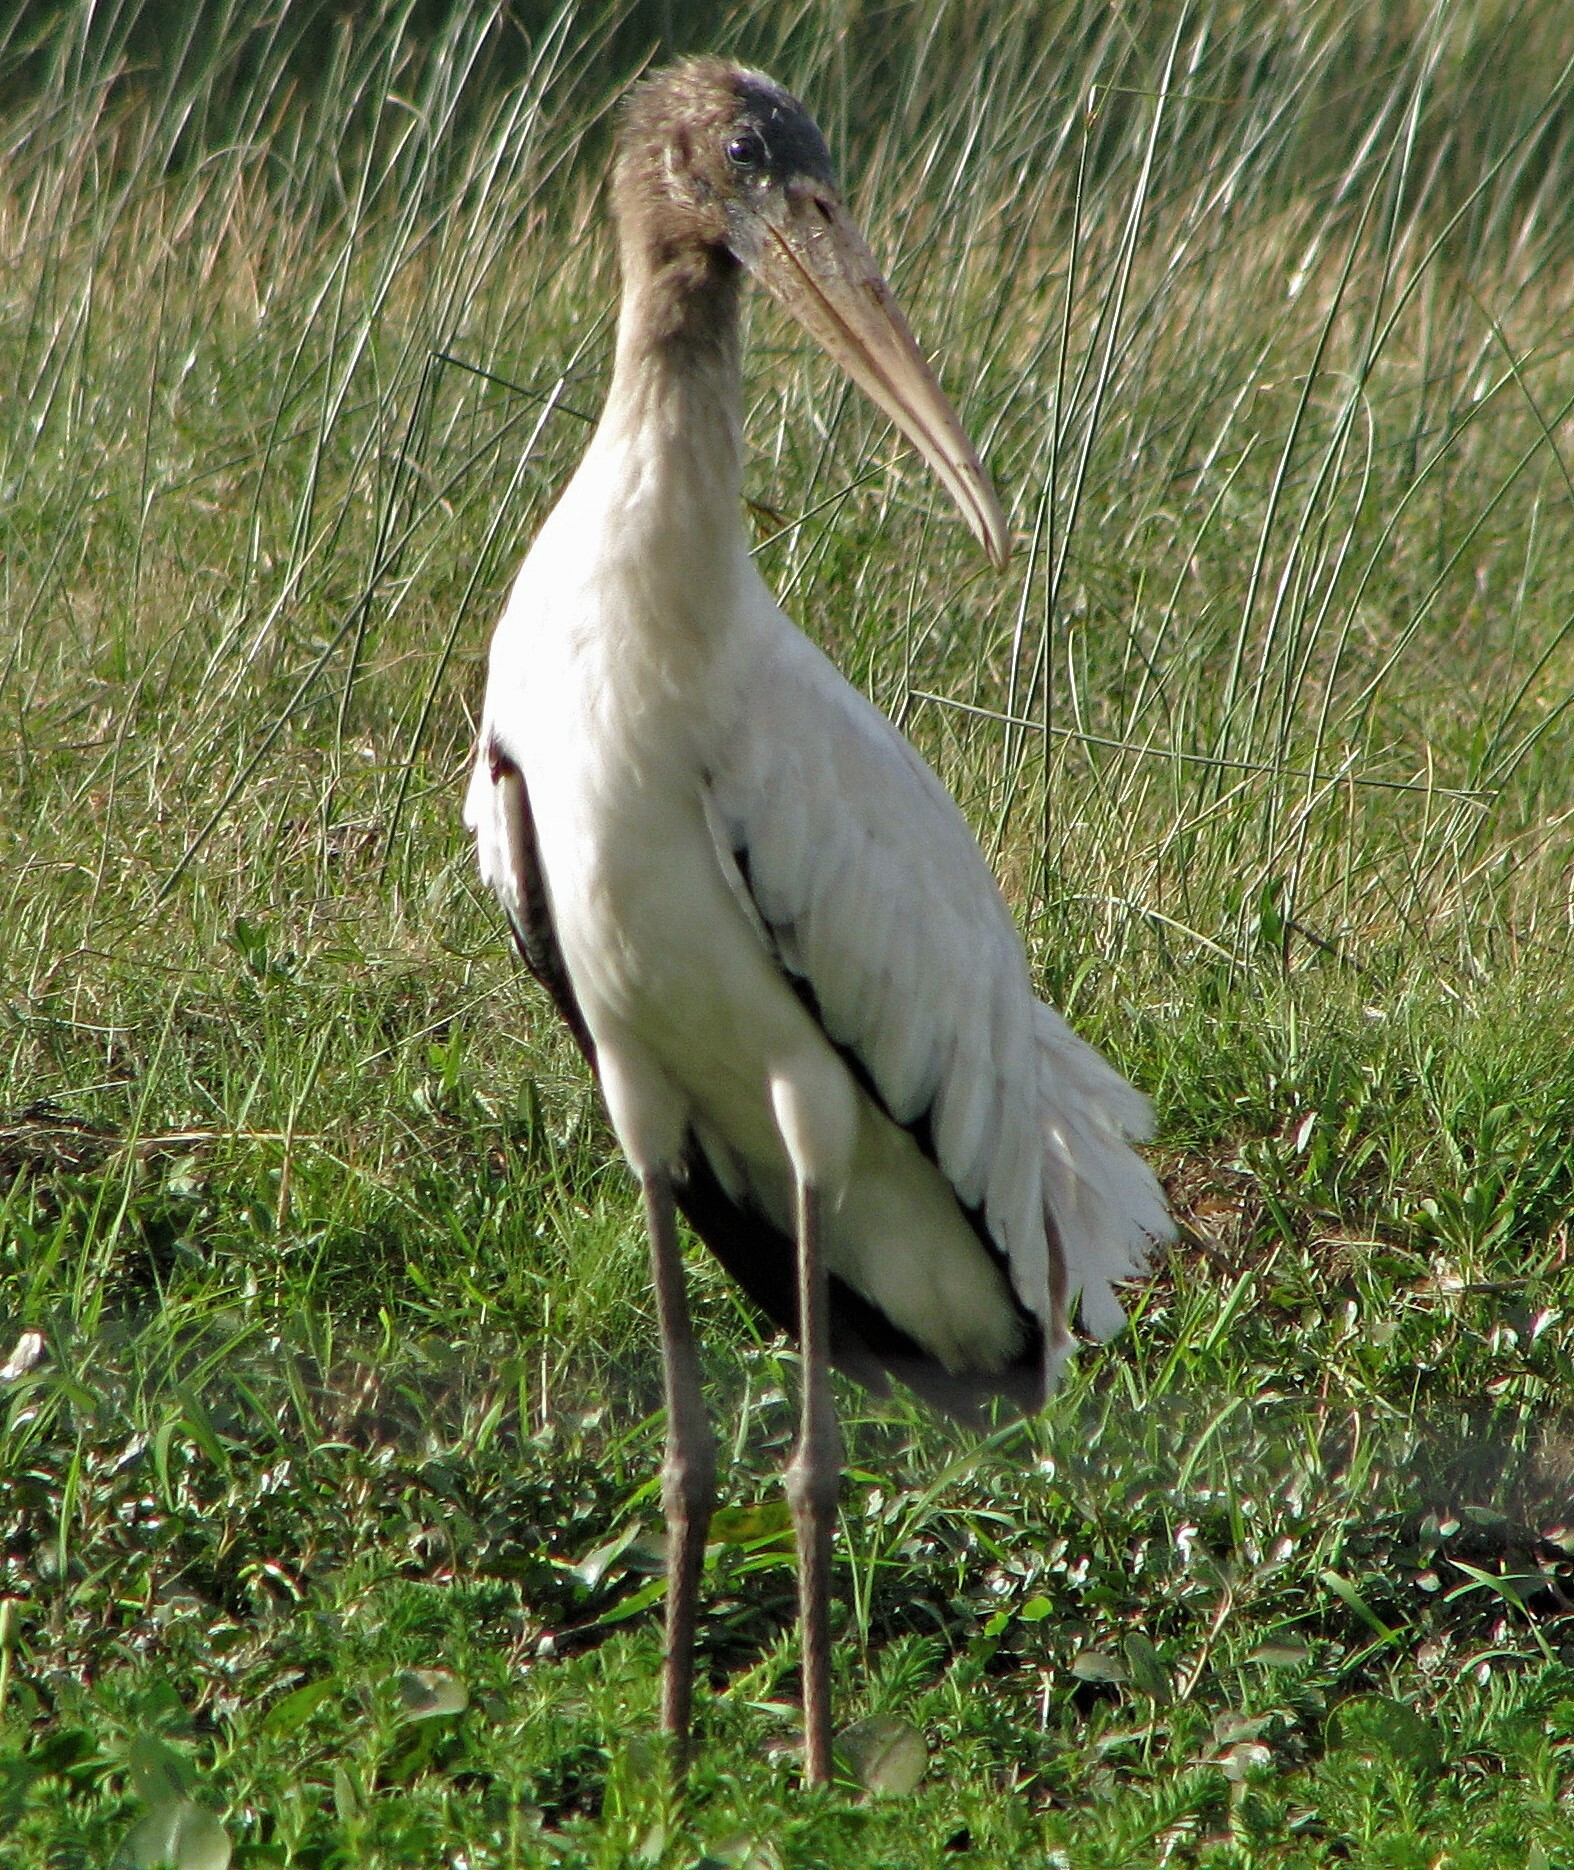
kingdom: Animalia
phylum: Chordata
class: Aves
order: Ciconiiformes
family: Ciconiidae
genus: Mycteria
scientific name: Mycteria americana
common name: Wood stork
